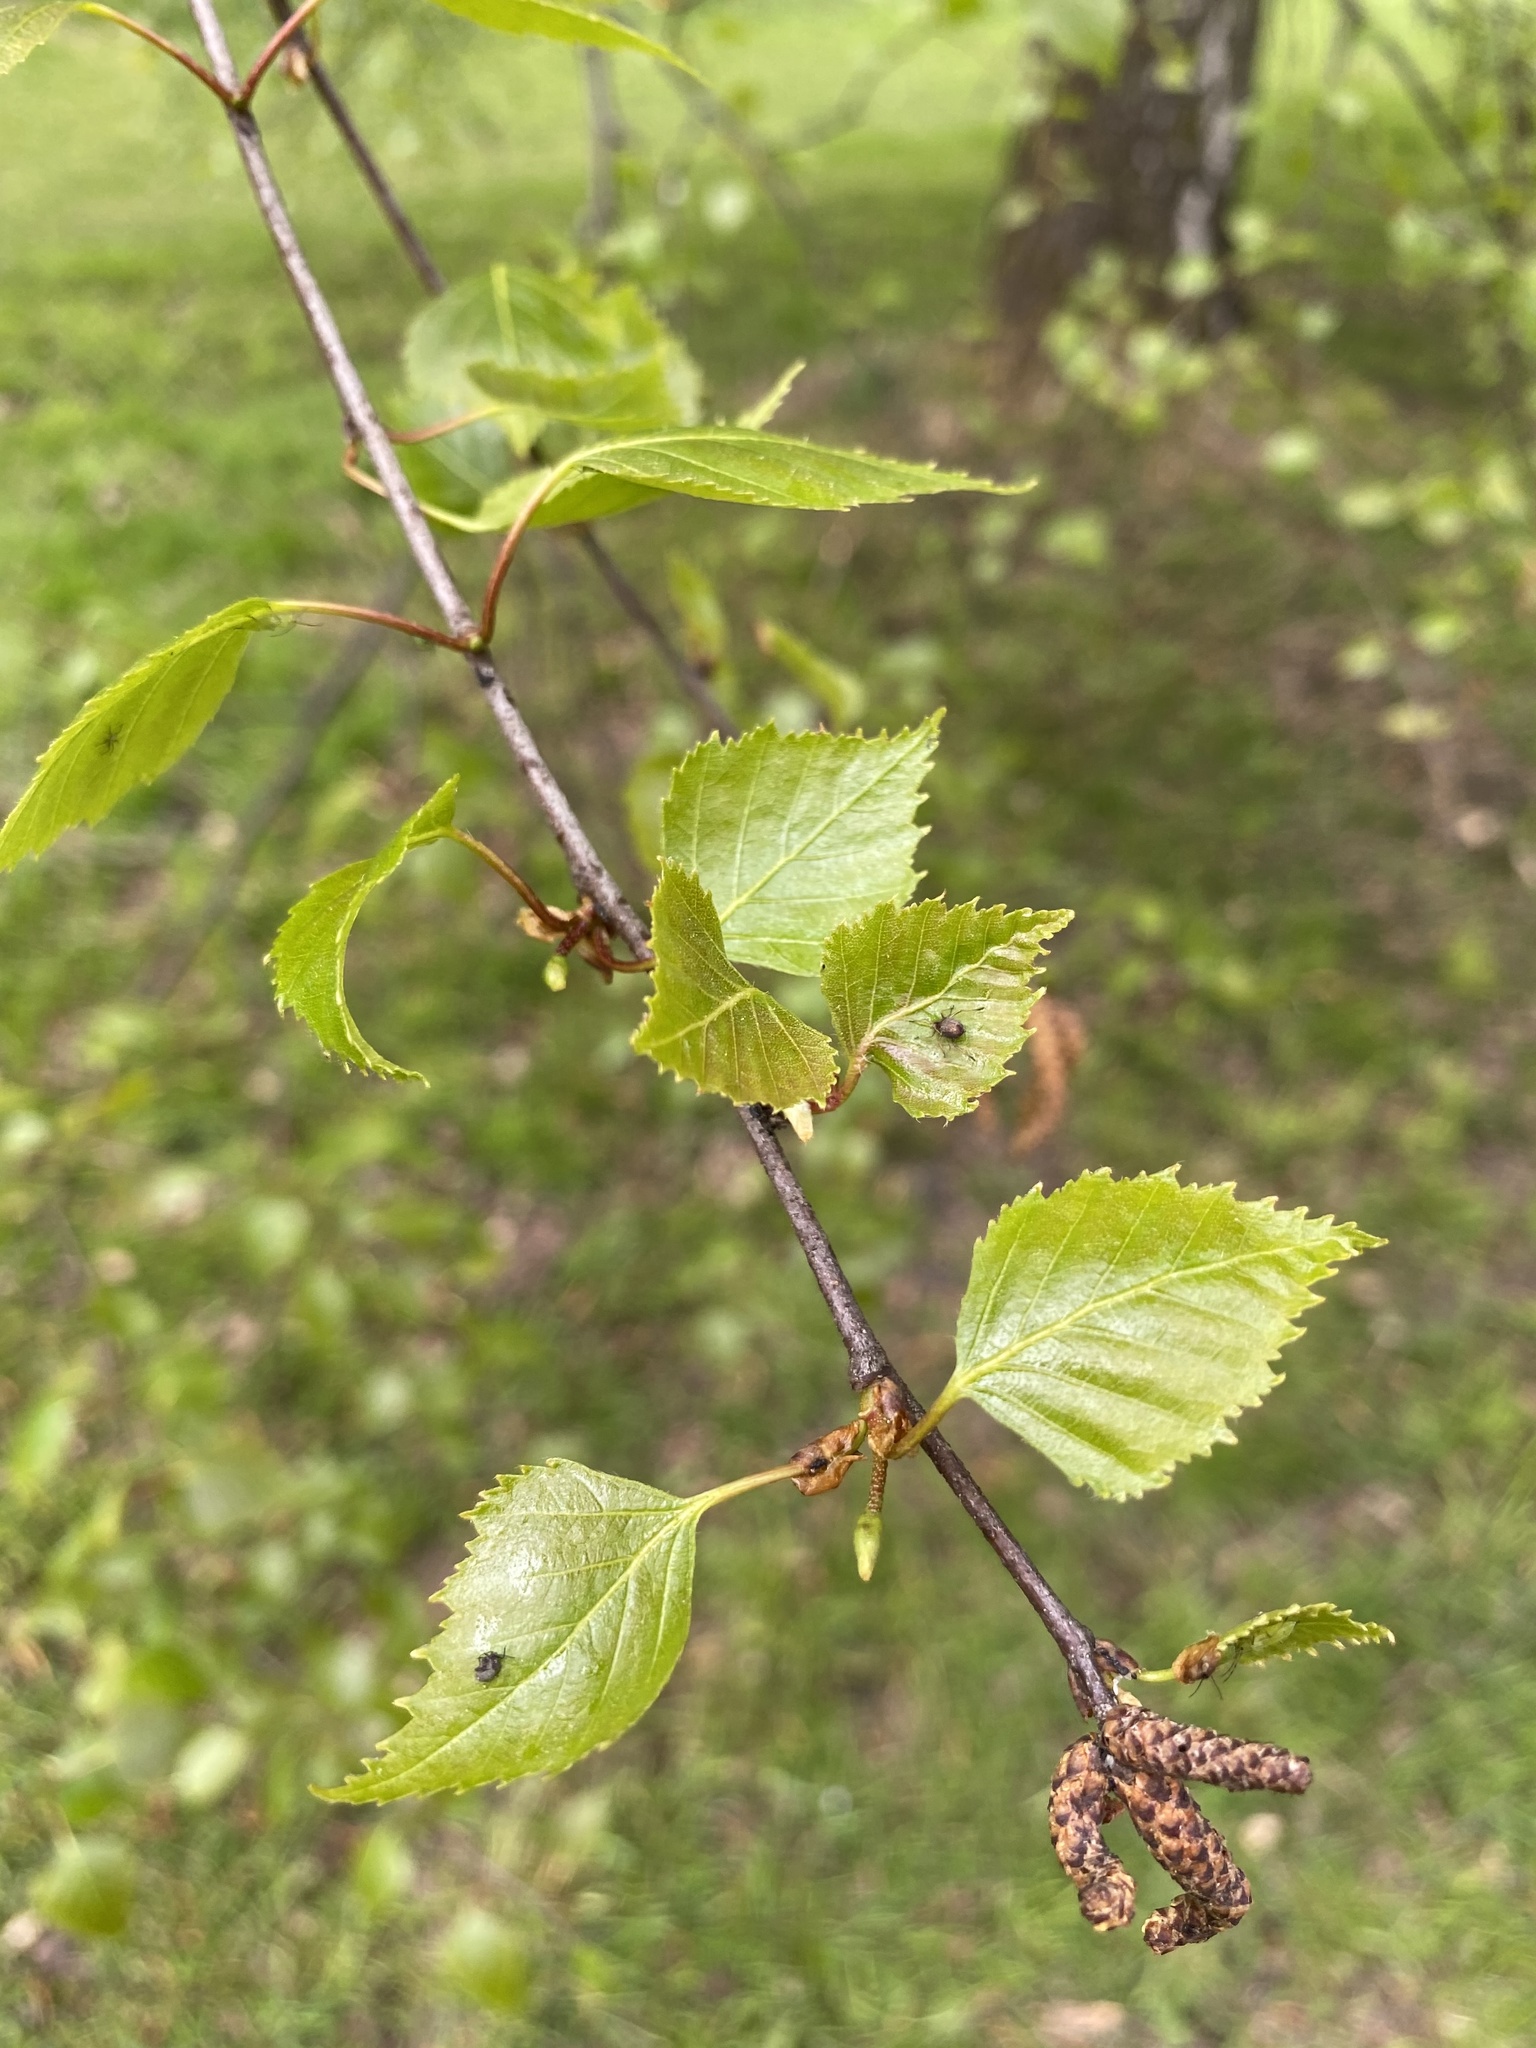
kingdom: Plantae
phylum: Tracheophyta
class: Magnoliopsida
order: Fagales
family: Betulaceae
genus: Betula
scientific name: Betula pendula
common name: Silver birch
